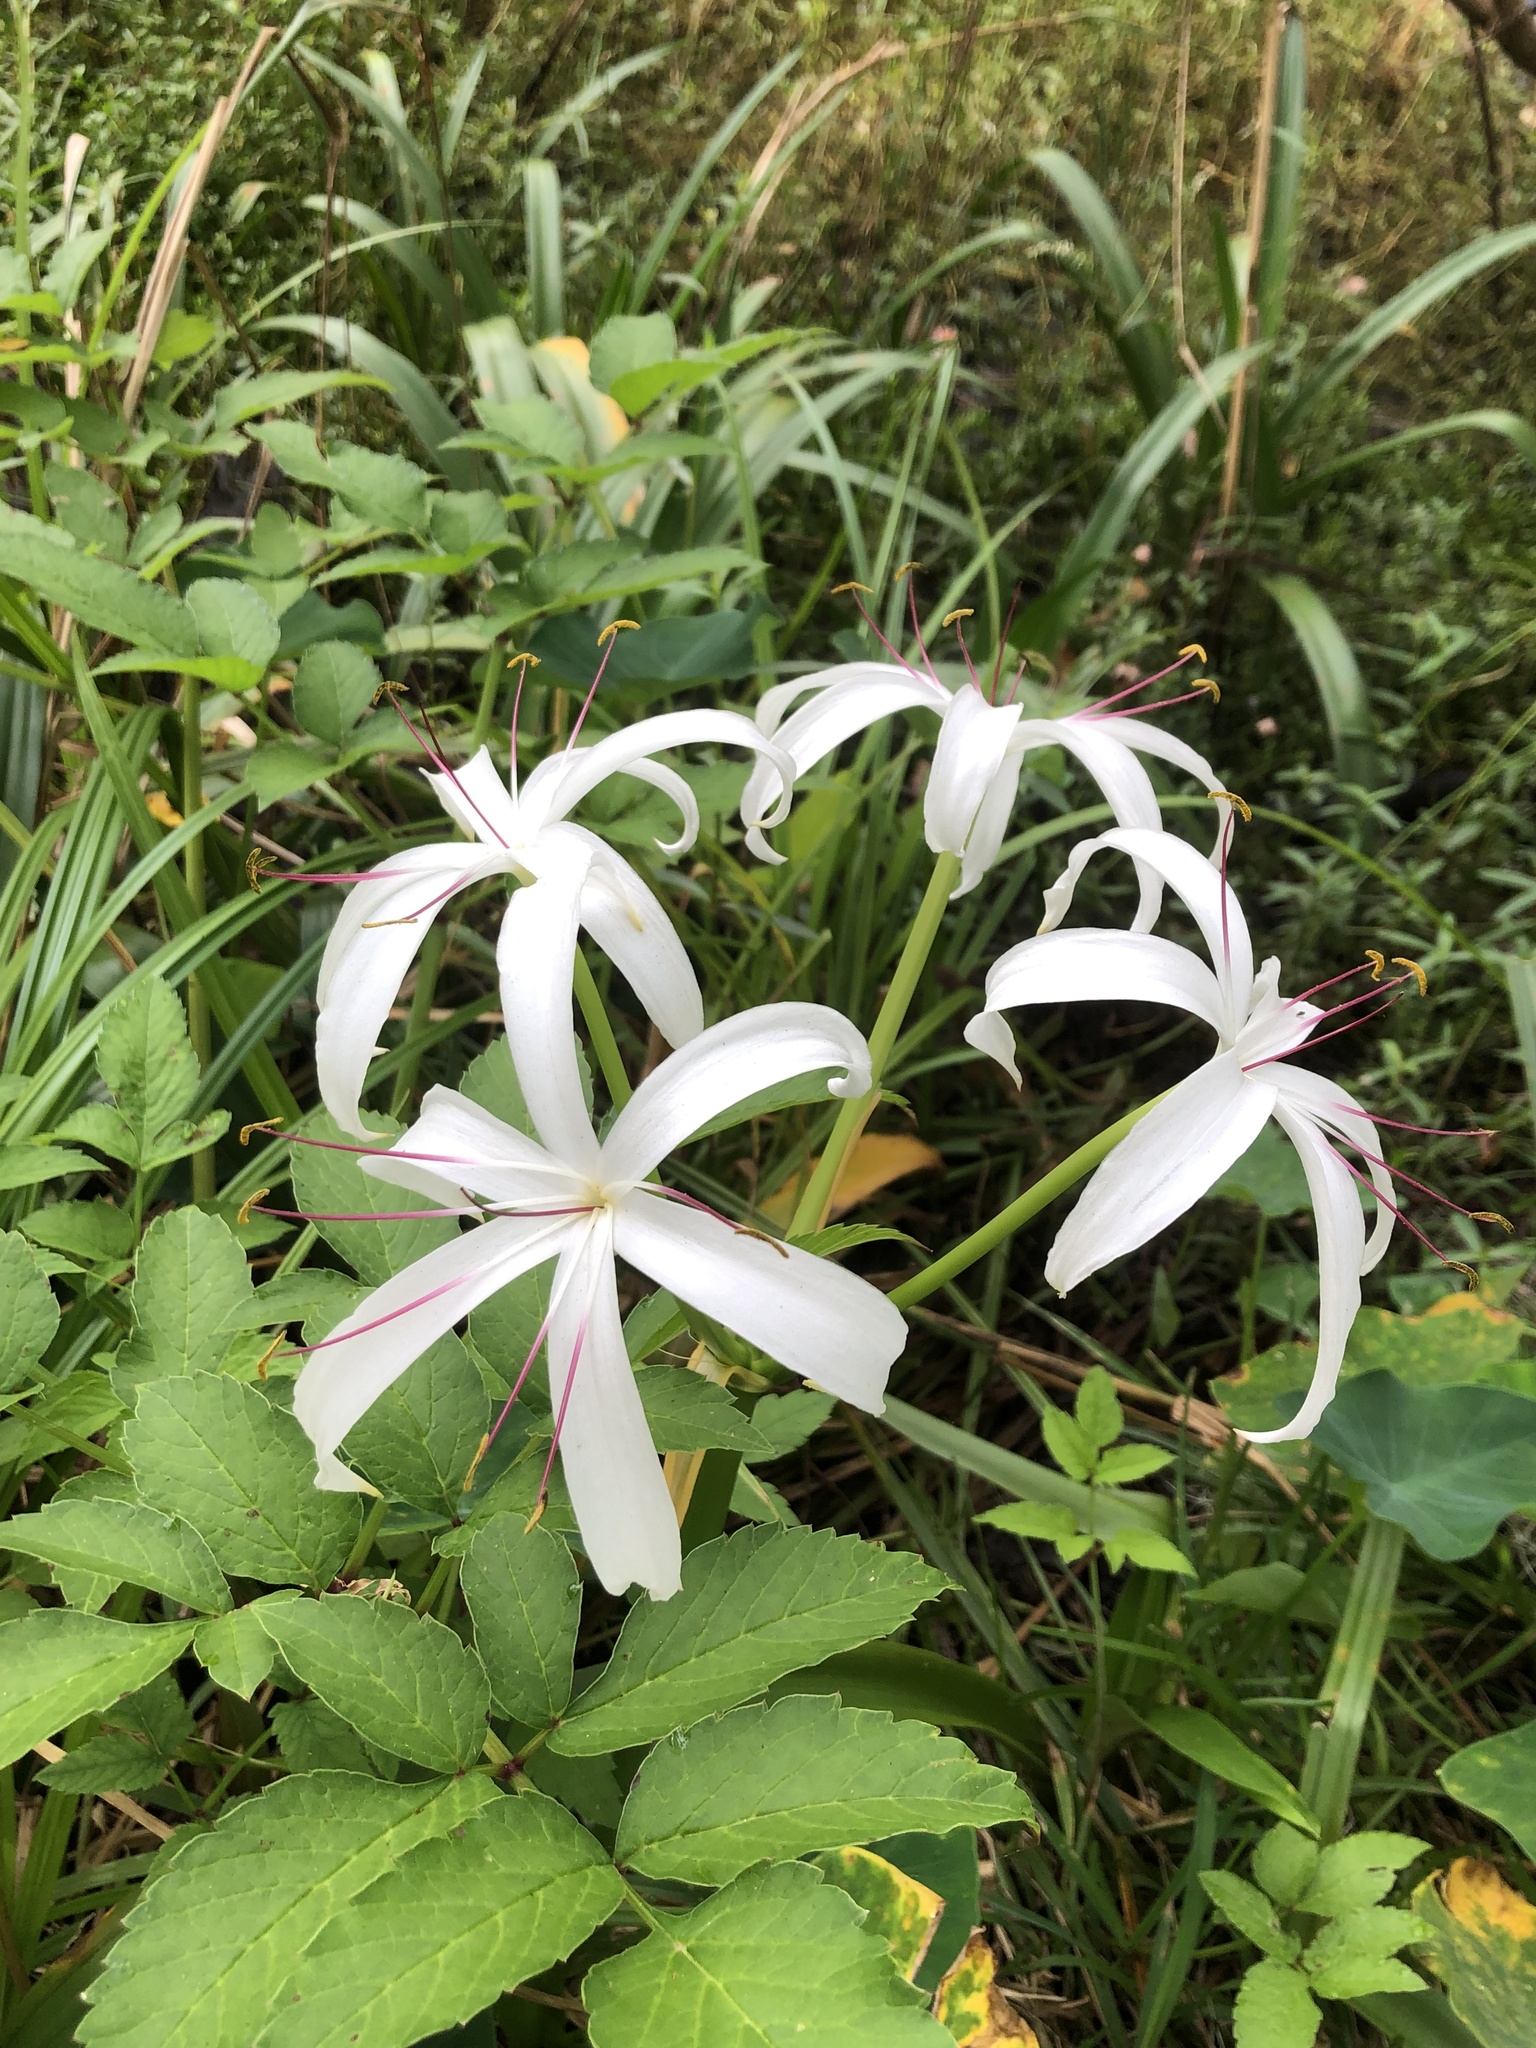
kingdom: Plantae
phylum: Tracheophyta
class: Liliopsida
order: Asparagales
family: Amaryllidaceae
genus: Crinum
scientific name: Crinum americanum
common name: Florida swamp-lily
